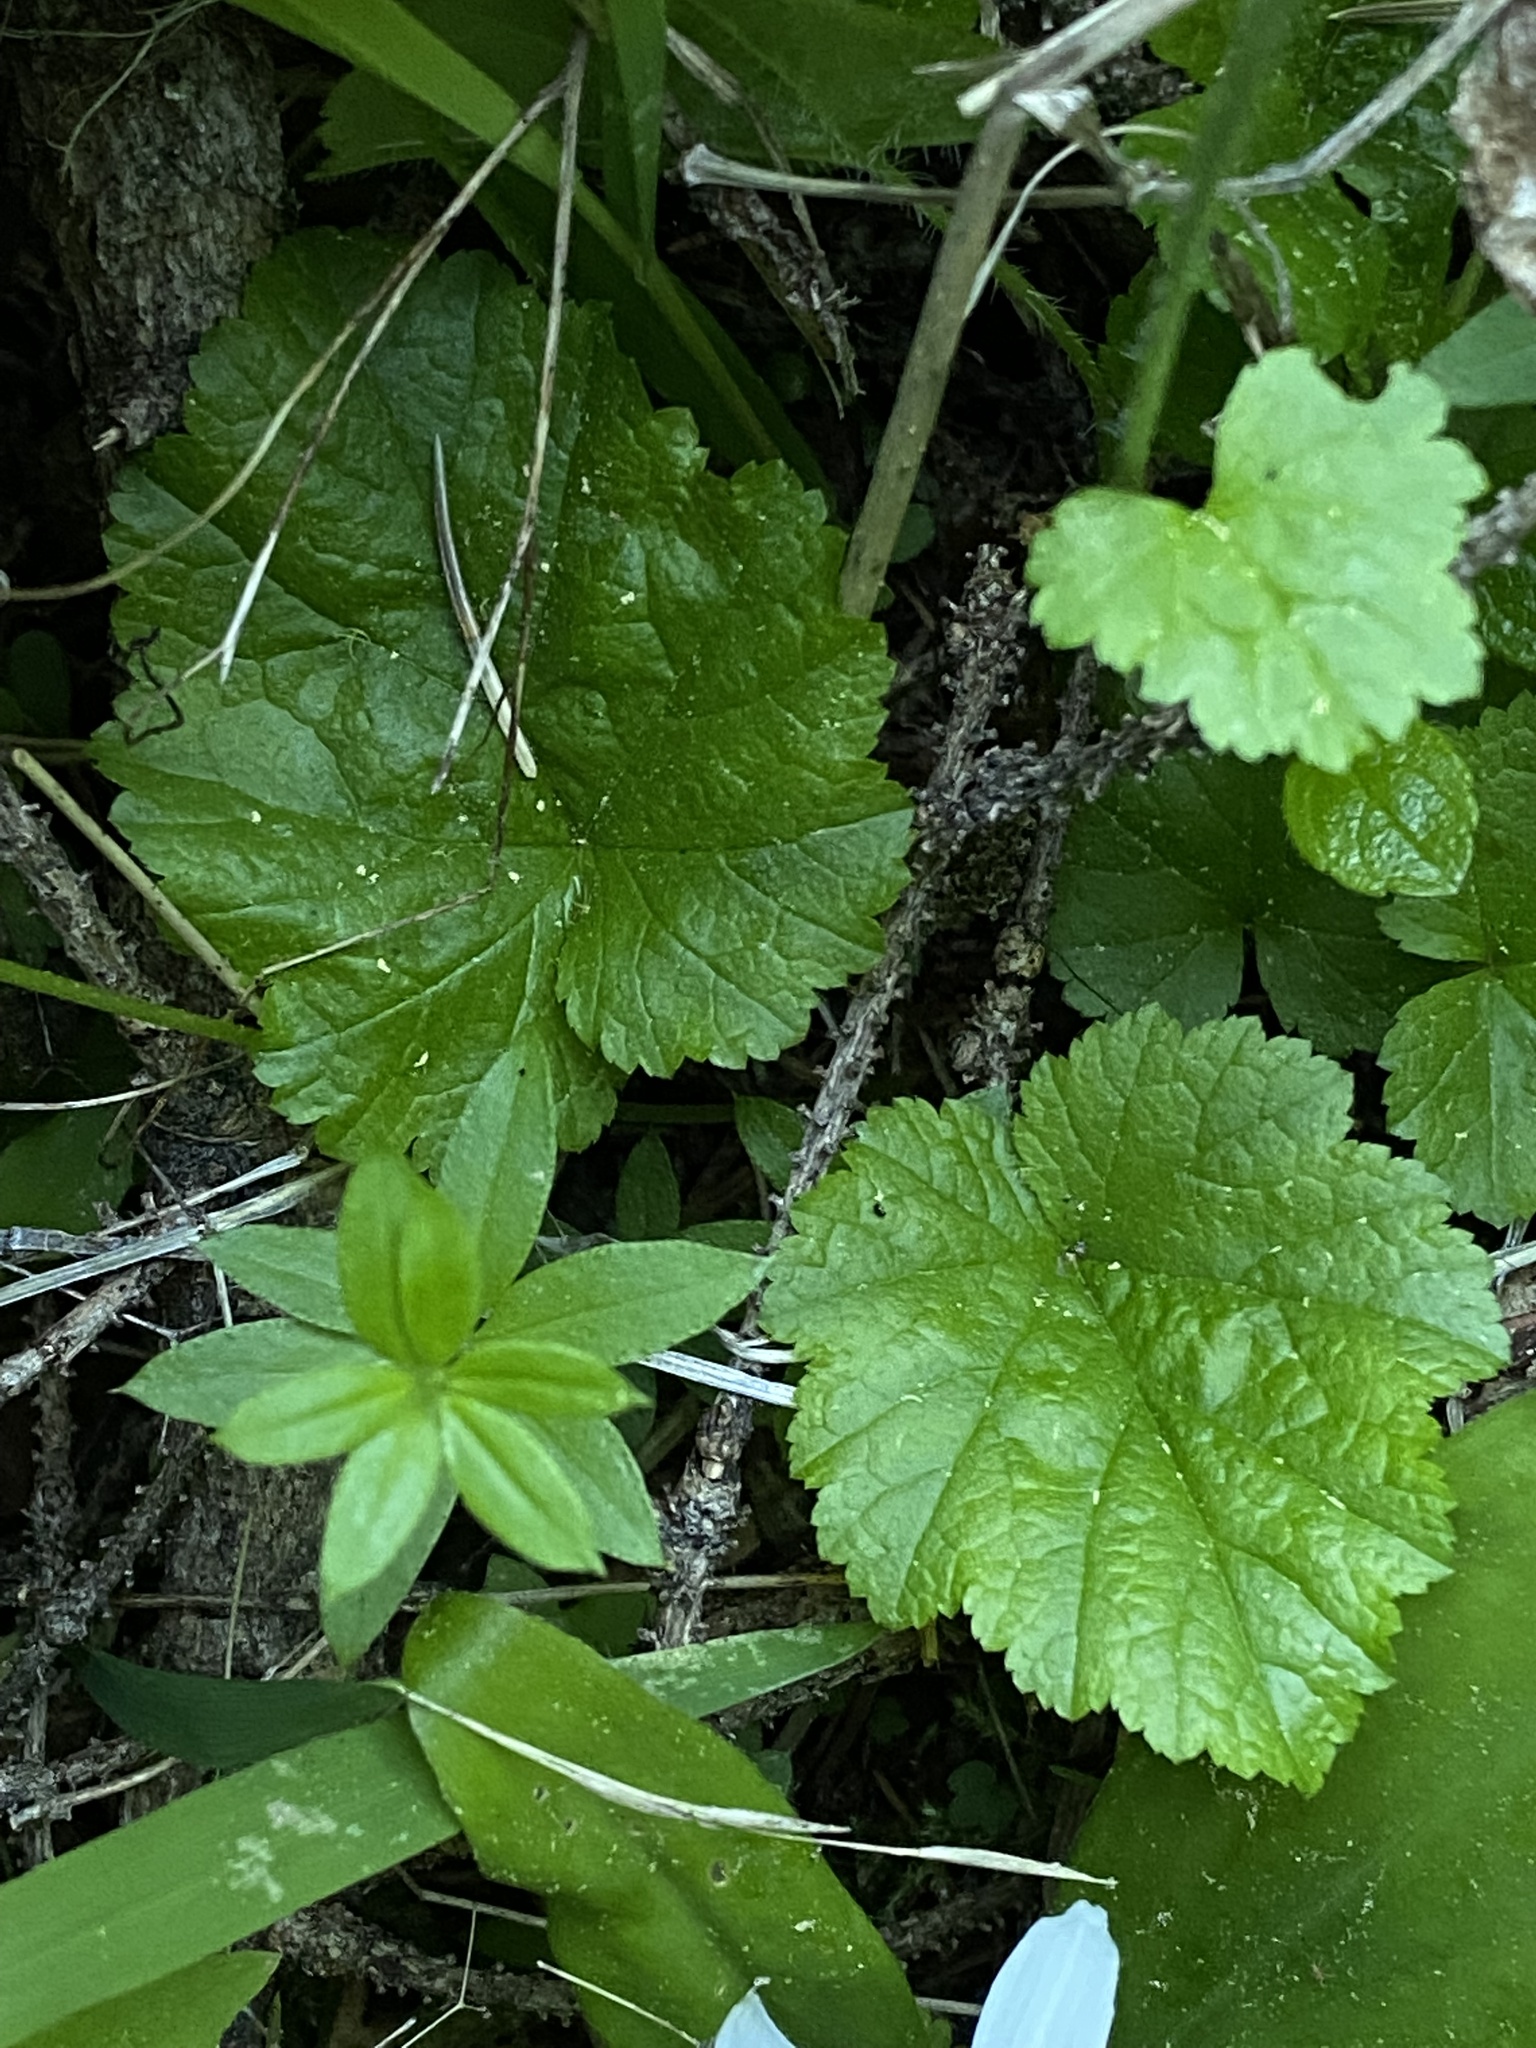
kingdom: Plantae
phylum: Tracheophyta
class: Magnoliopsida
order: Saxifragales
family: Saxifragaceae
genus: Pectiantia
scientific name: Pectiantia pentandra
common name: Alpine bishop's-cap
